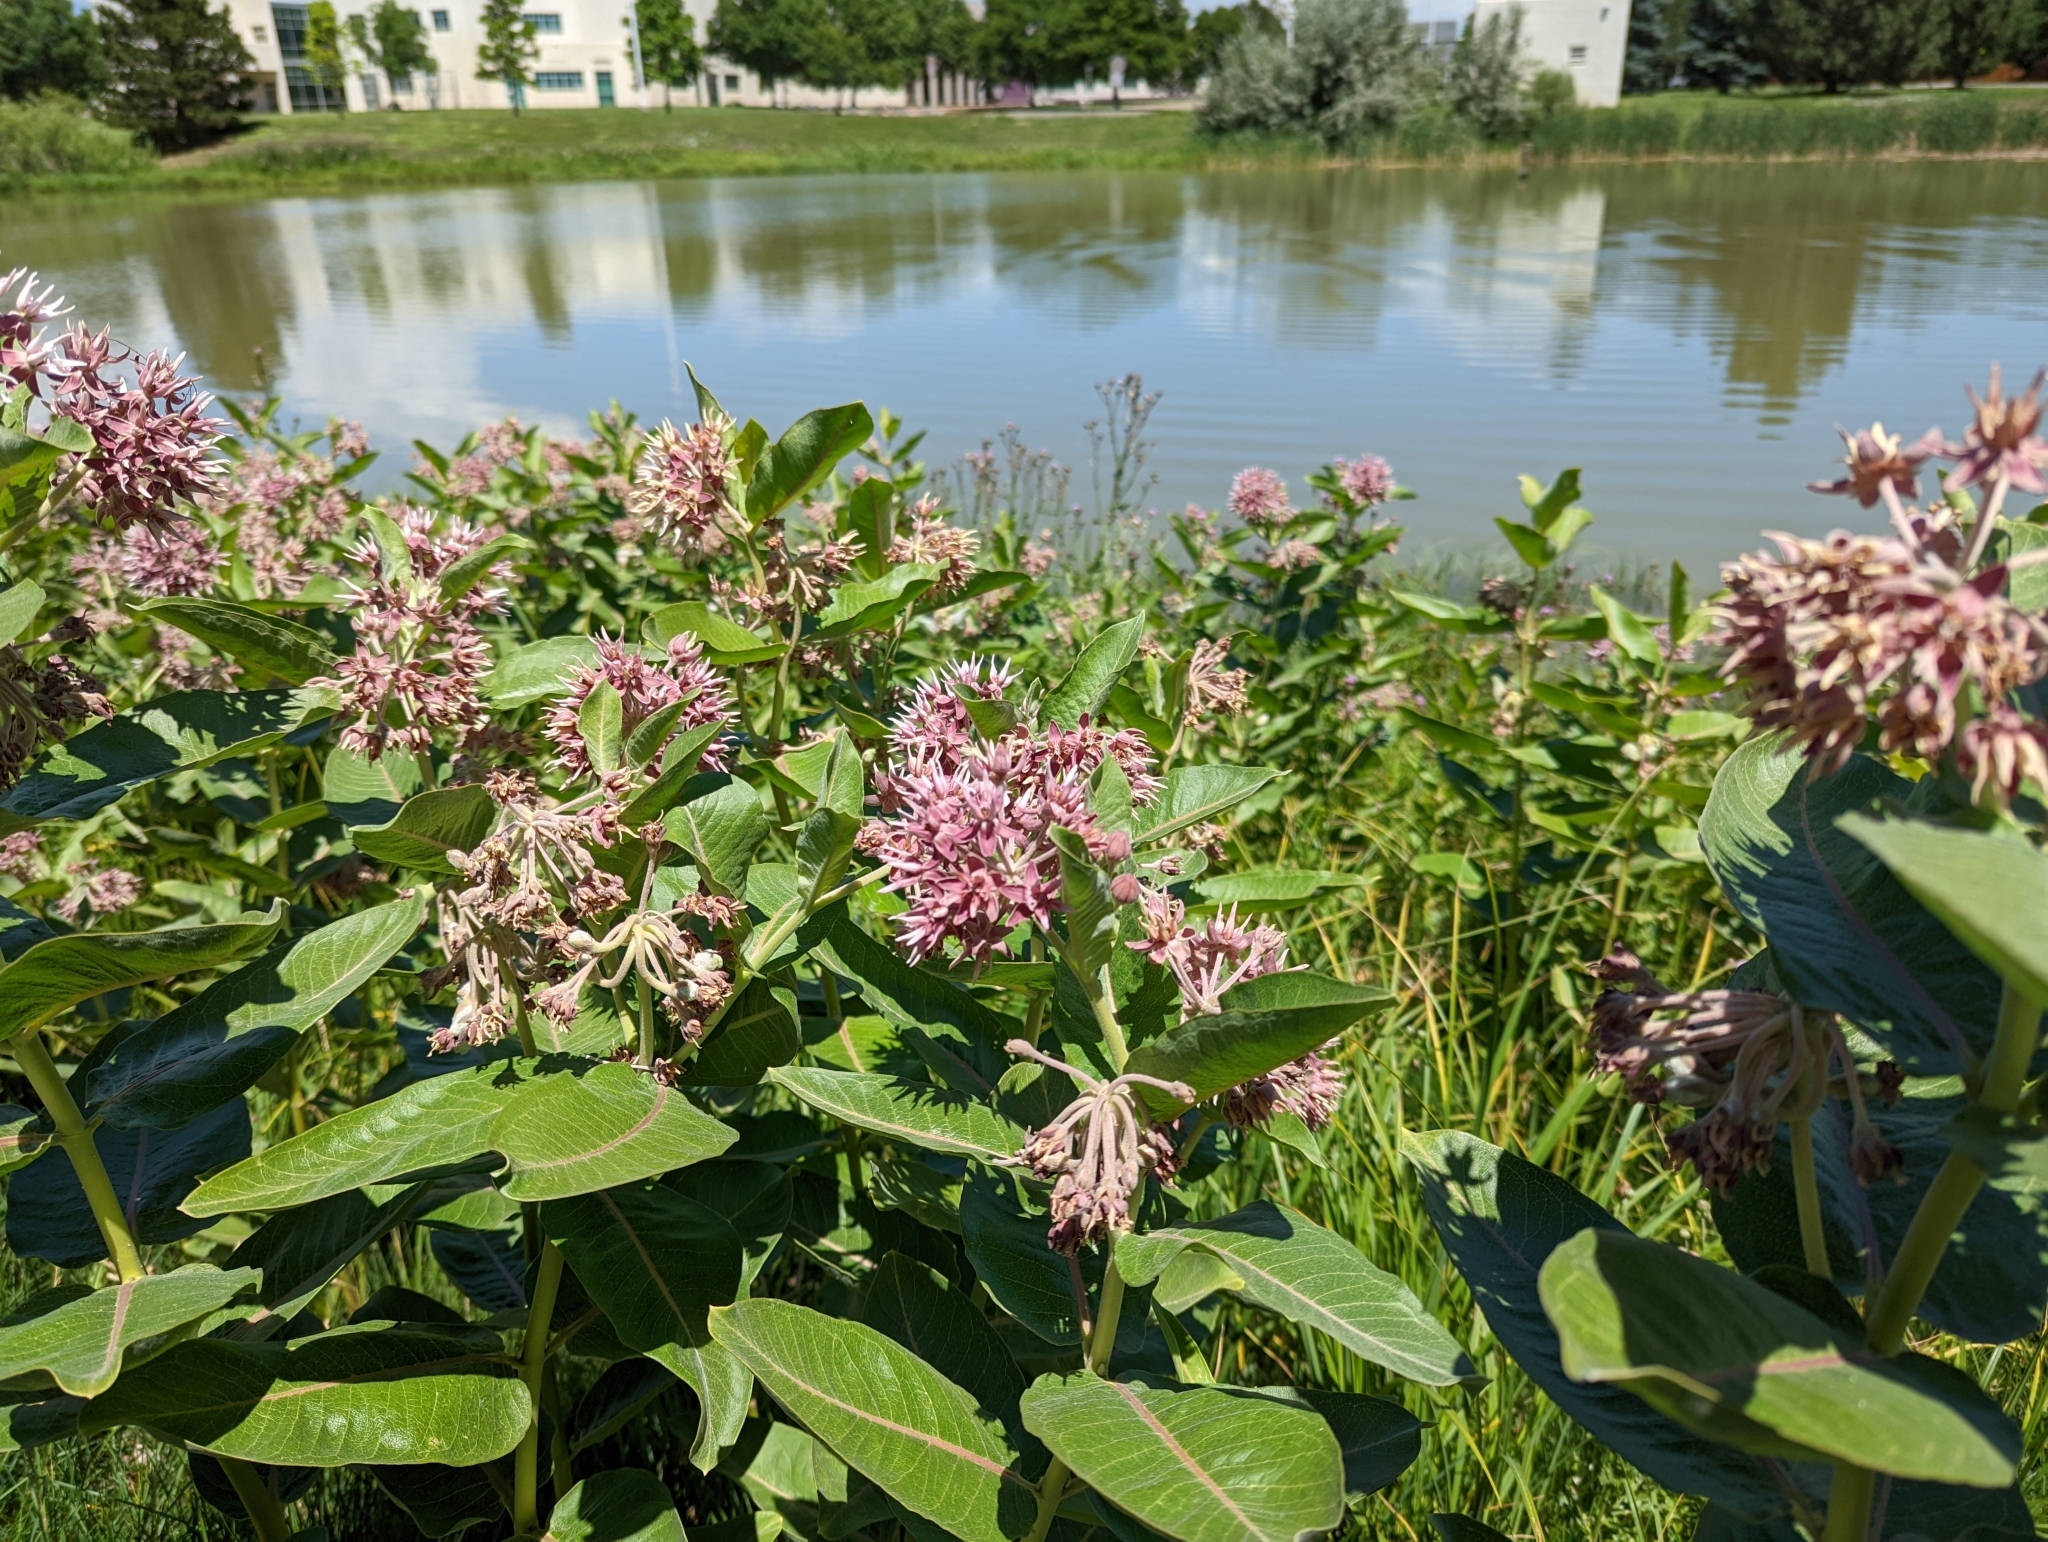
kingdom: Plantae
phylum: Tracheophyta
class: Magnoliopsida
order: Gentianales
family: Apocynaceae
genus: Asclepias
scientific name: Asclepias speciosa
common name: Showy milkweed
